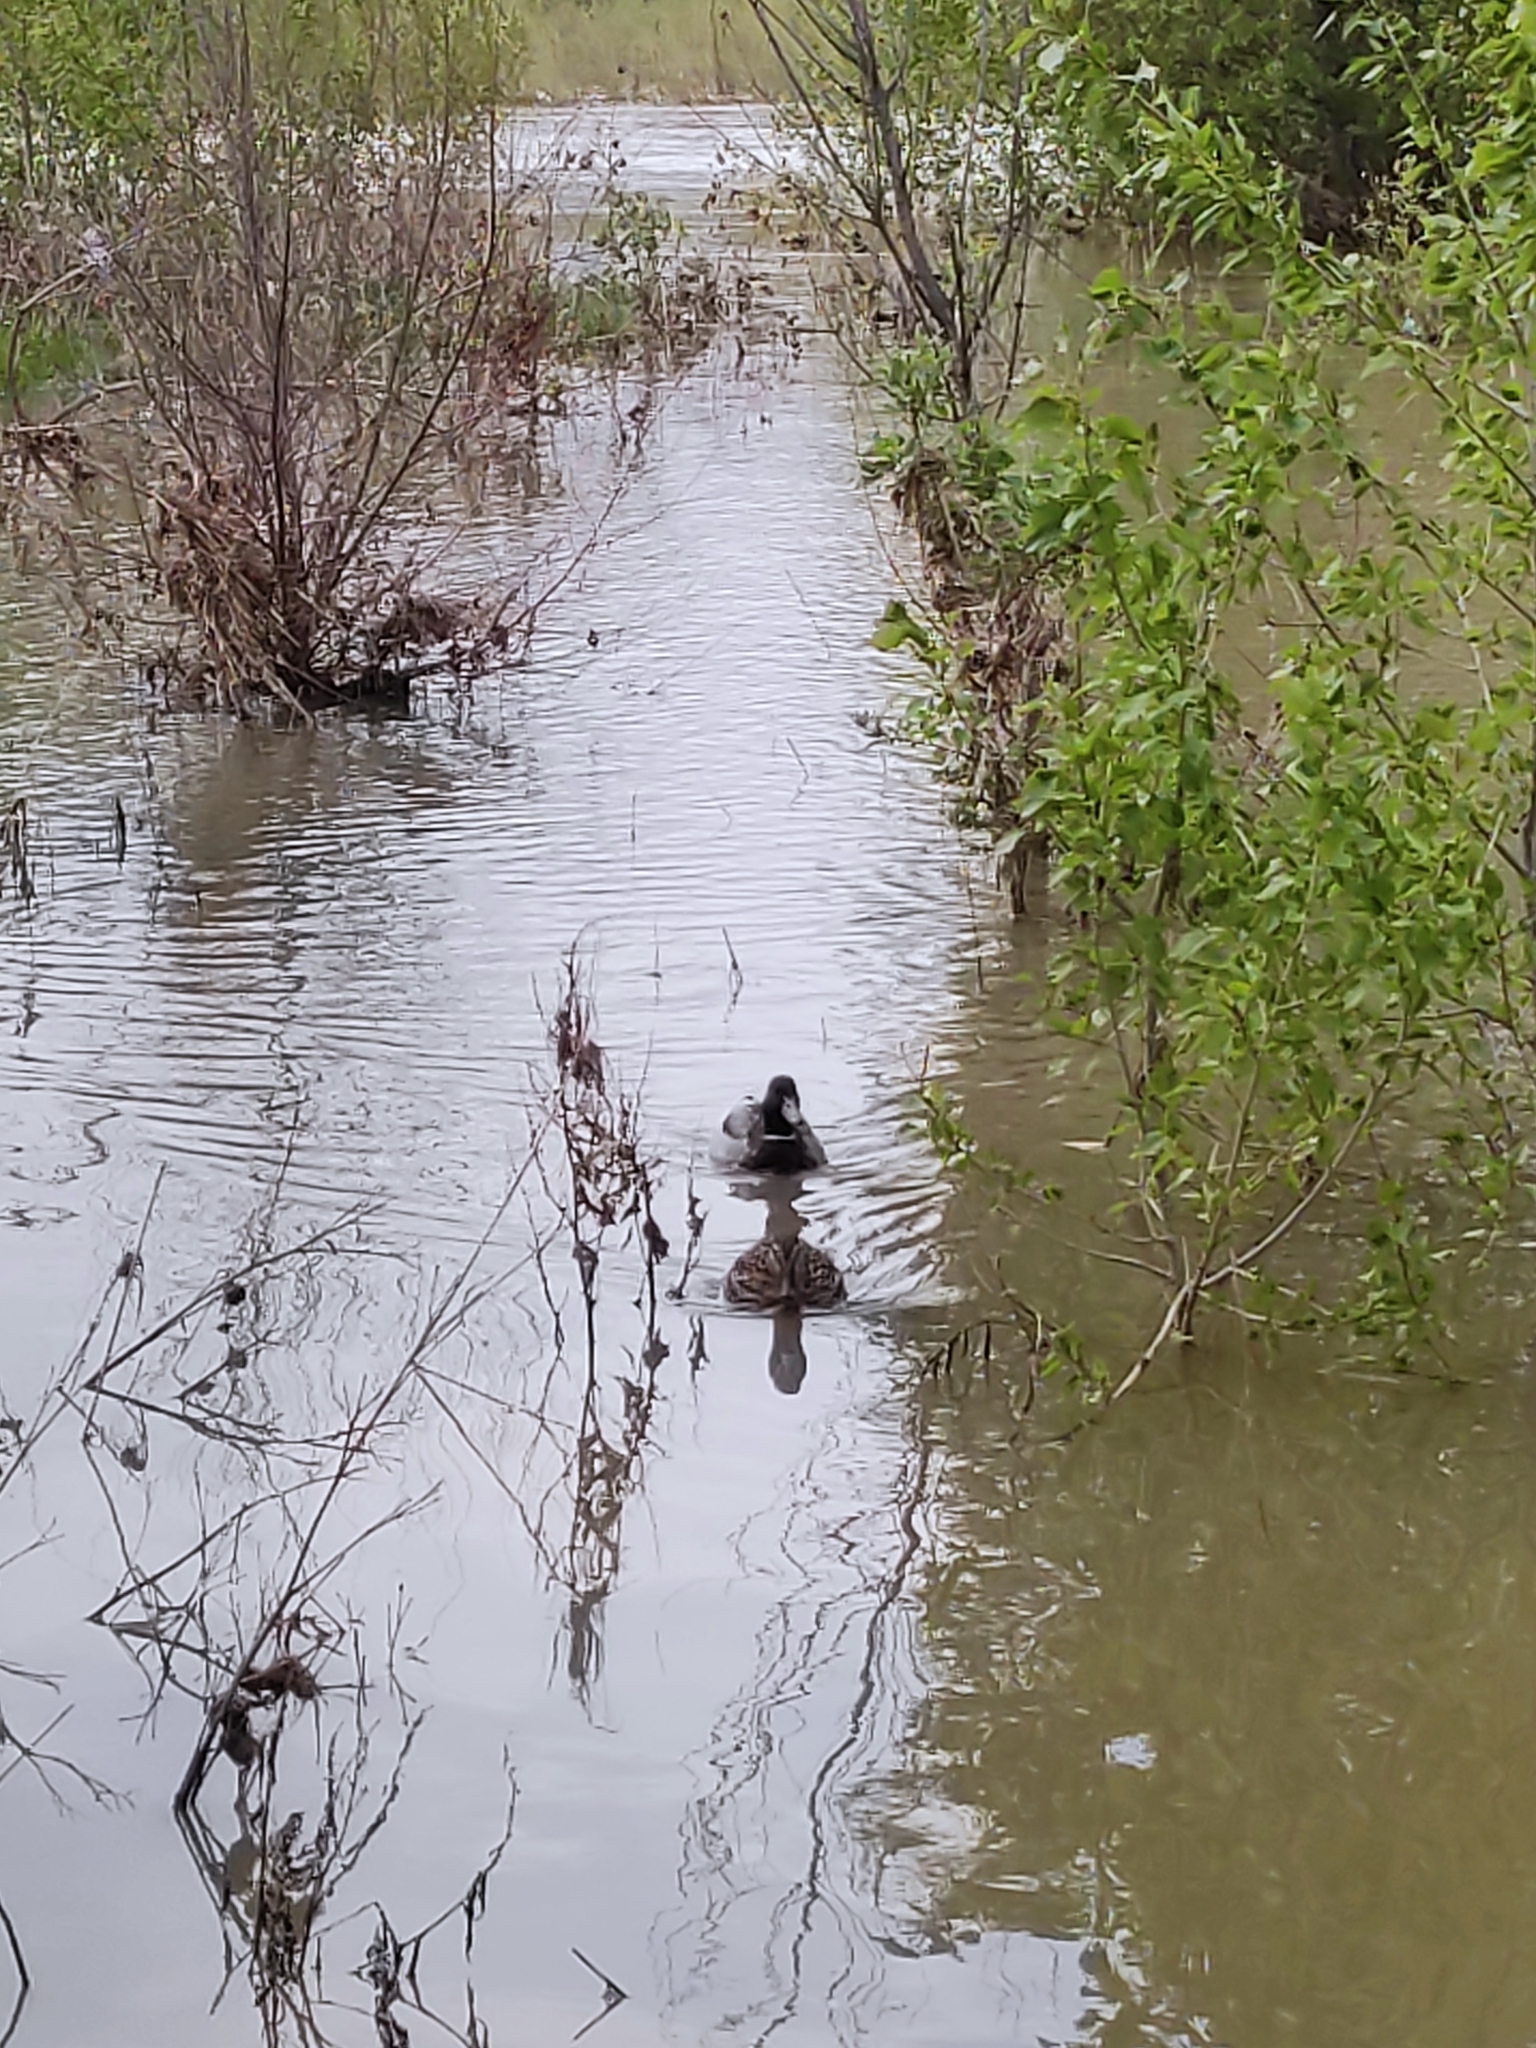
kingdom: Animalia
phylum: Chordata
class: Aves
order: Anseriformes
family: Anatidae
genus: Anas
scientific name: Anas platyrhynchos
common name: Mallard
